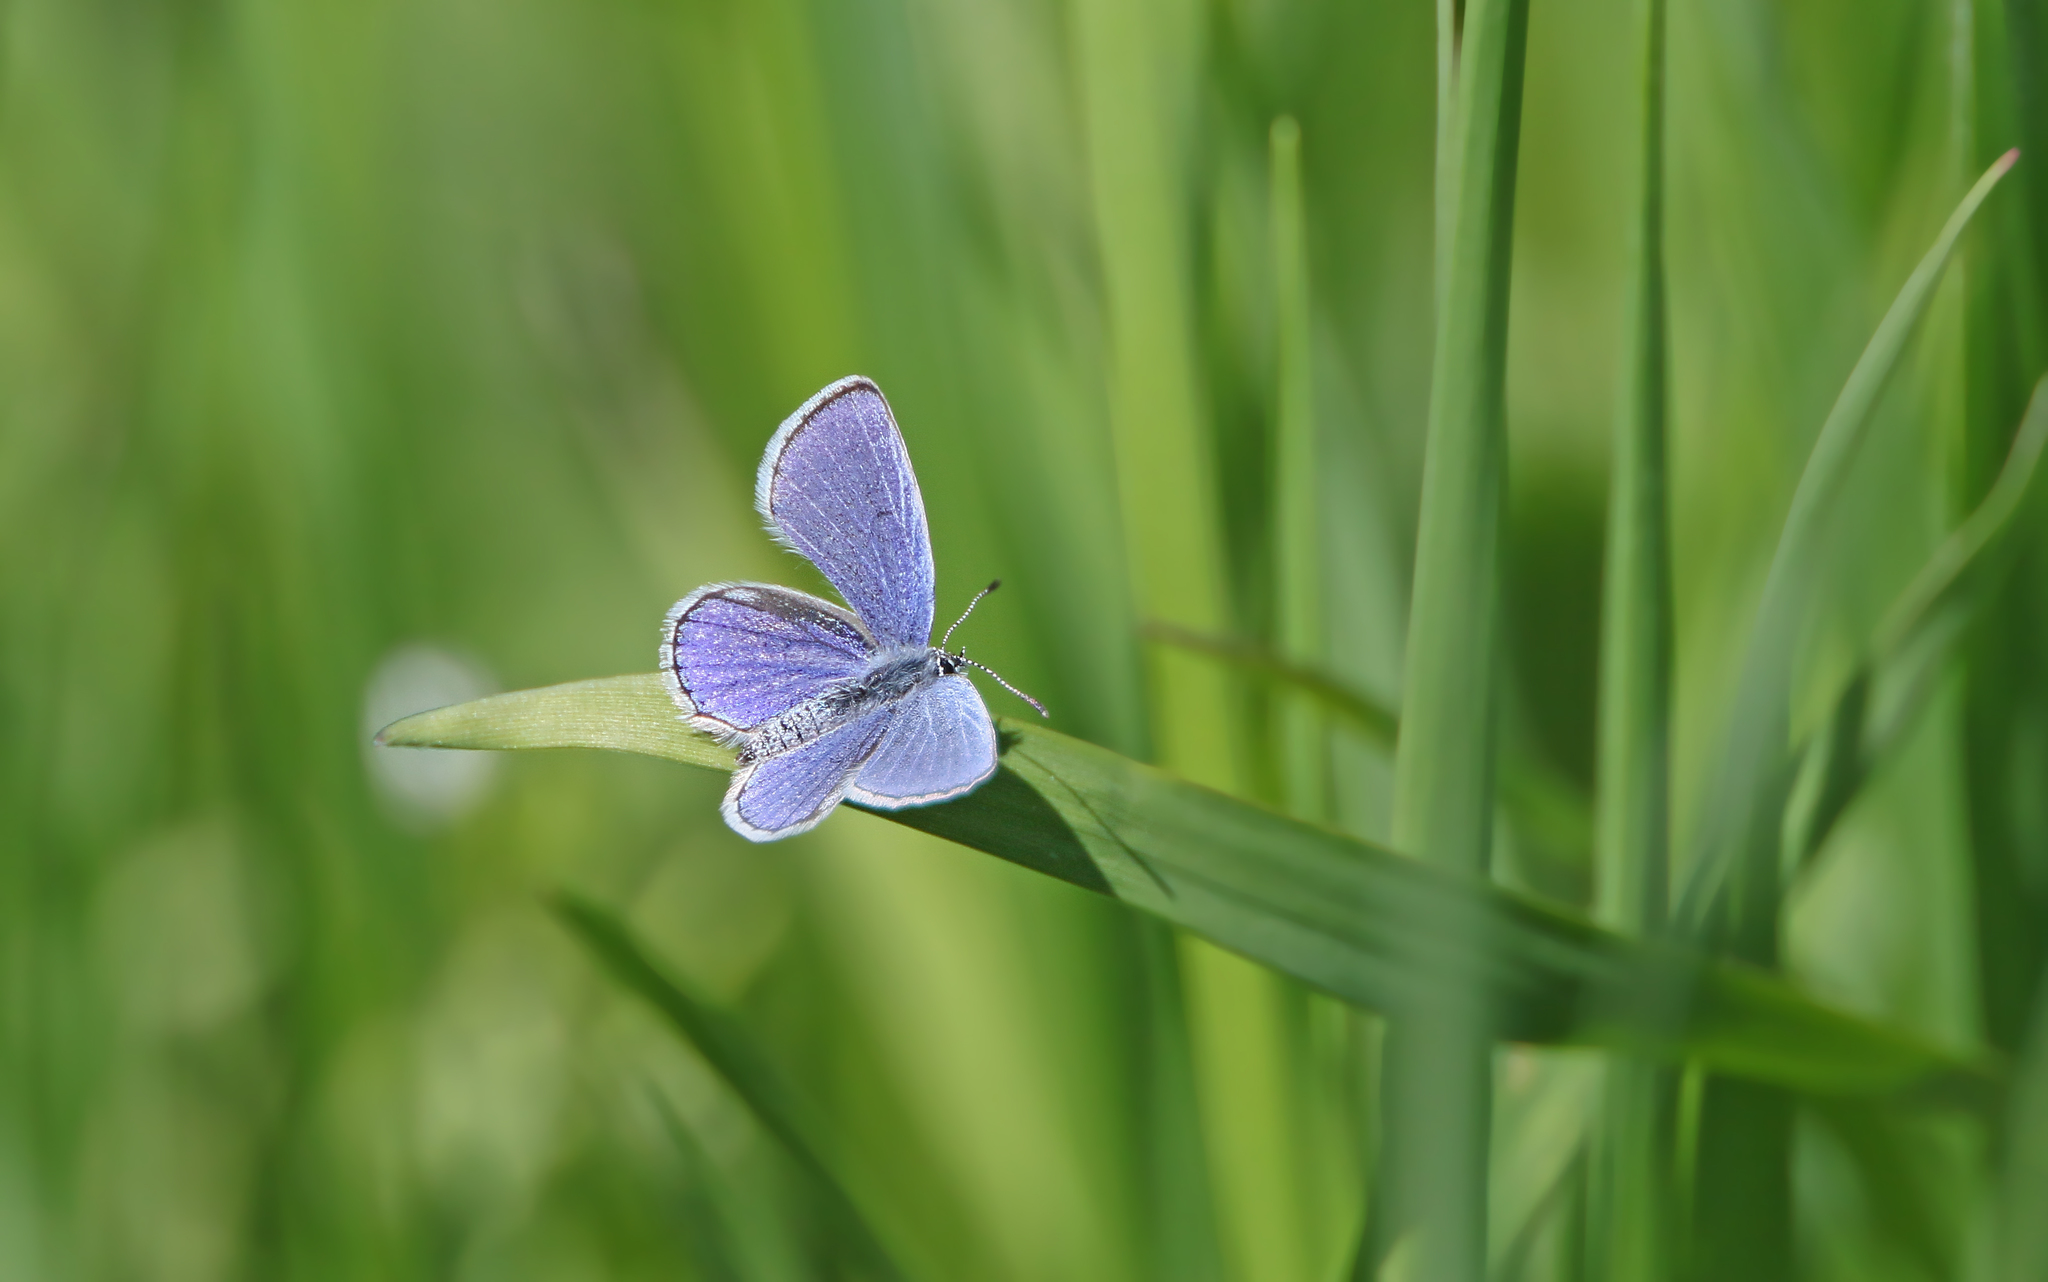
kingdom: Animalia
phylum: Arthropoda
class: Insecta
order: Lepidoptera
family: Lycaenidae
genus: Elkalyce
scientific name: Elkalyce argiades
